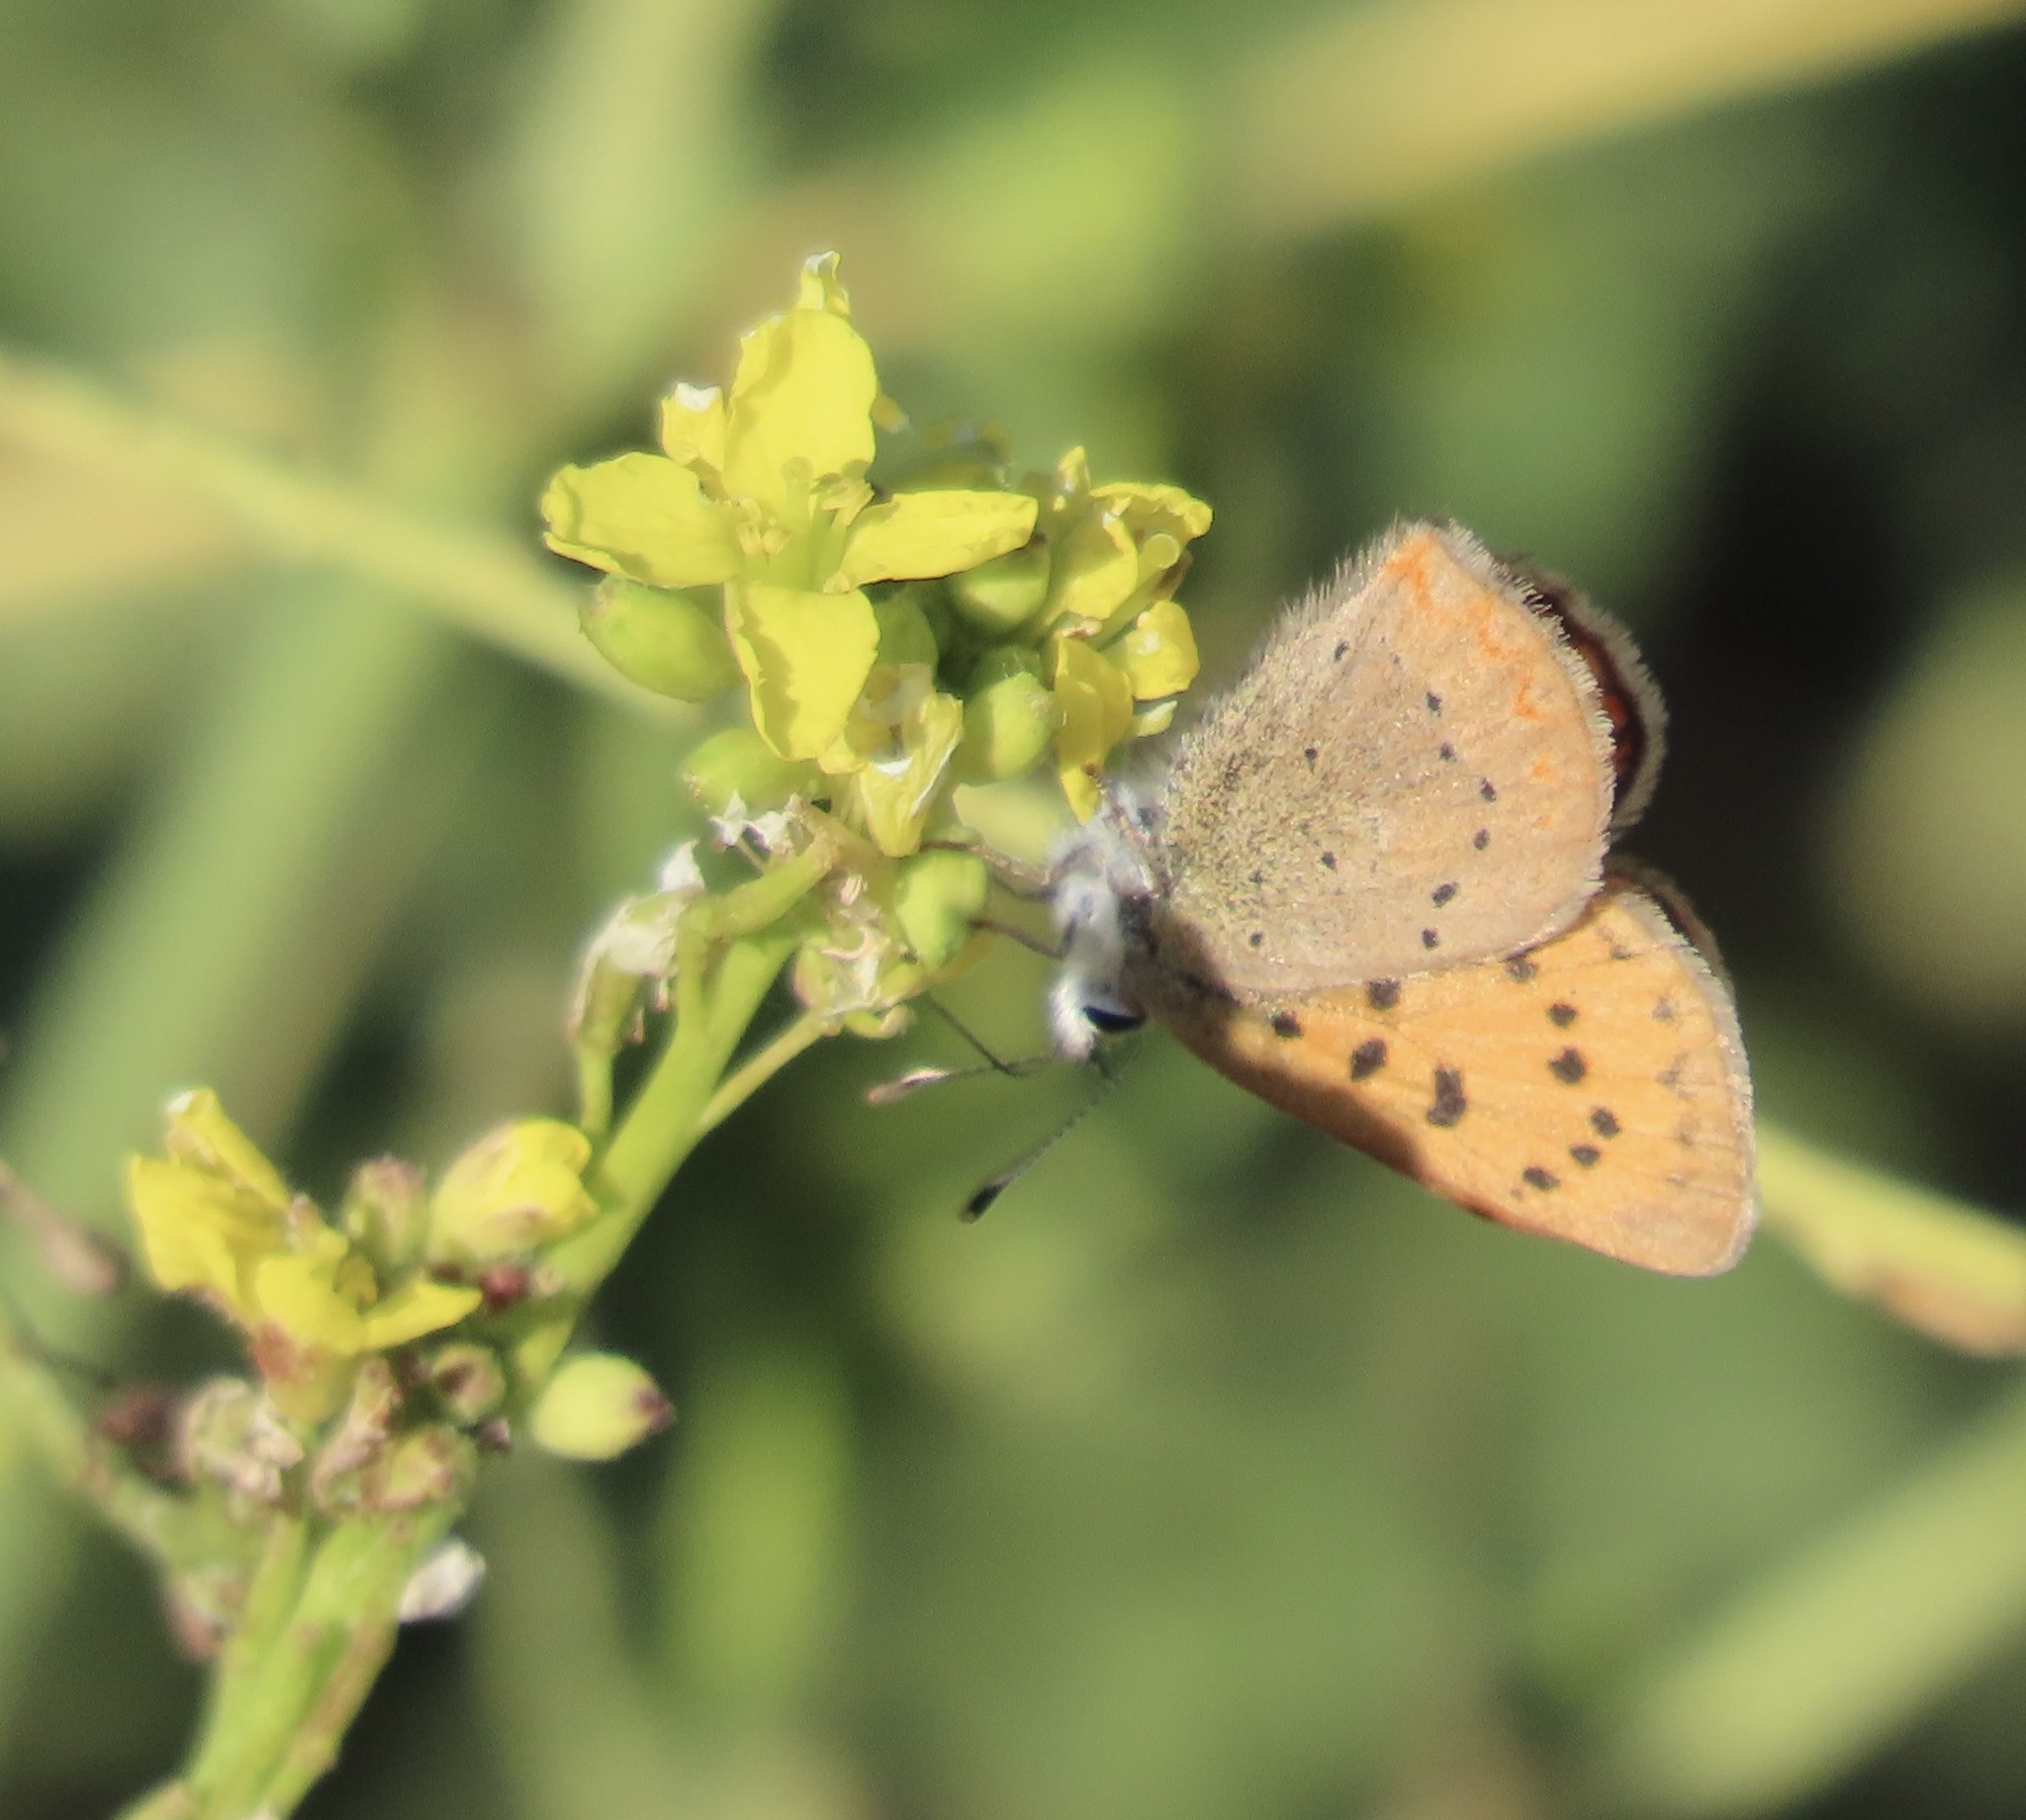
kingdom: Animalia
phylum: Arthropoda
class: Insecta
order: Lepidoptera
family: Lycaenidae
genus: Tharsalea
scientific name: Tharsalea helloides
